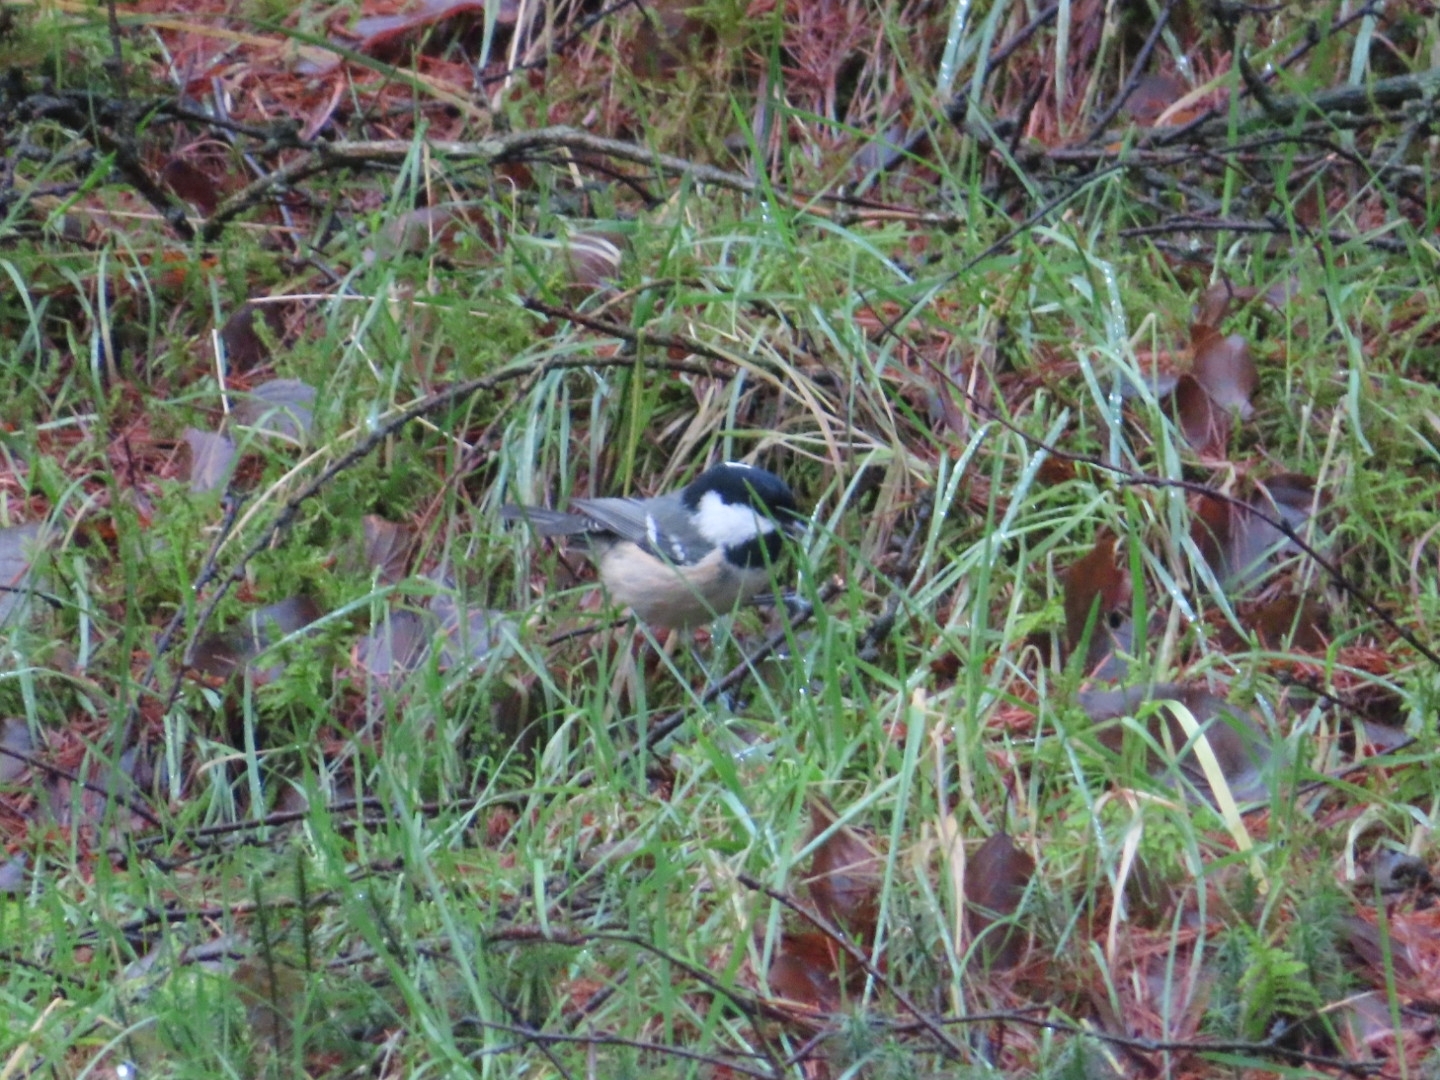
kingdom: Animalia
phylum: Chordata
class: Aves
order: Passeriformes
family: Paridae
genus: Periparus
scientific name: Periparus ater
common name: Coal tit
